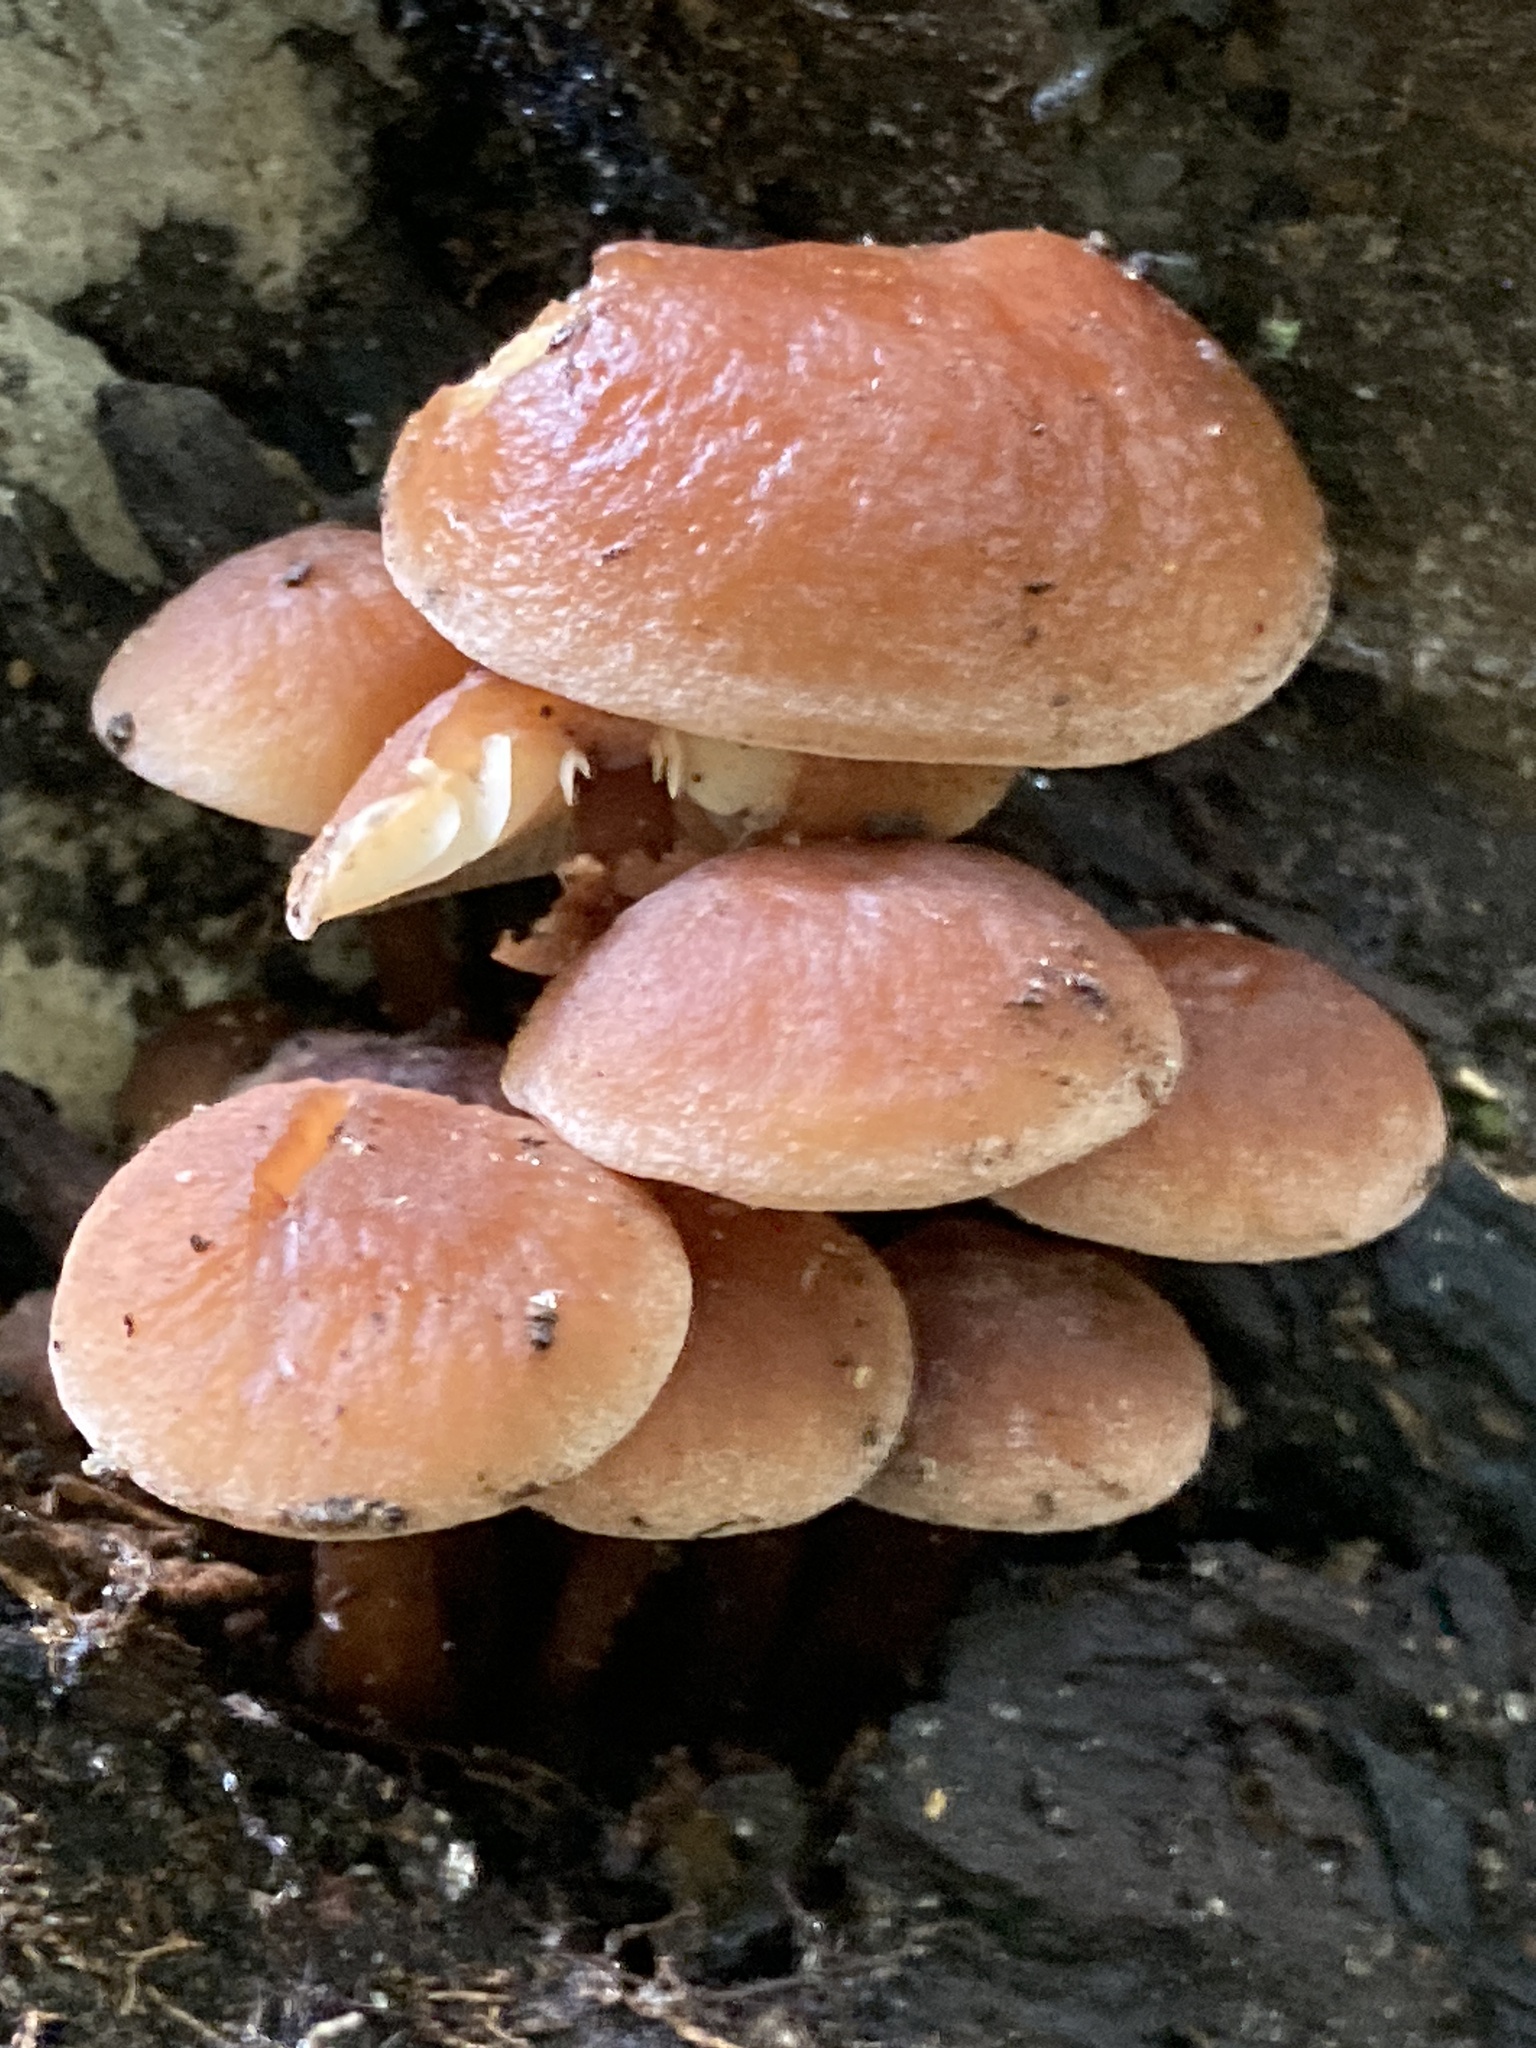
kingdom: Fungi
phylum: Basidiomycota
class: Agaricomycetes
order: Agaricales
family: Physalacriaceae
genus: Flammulina
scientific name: Flammulina
